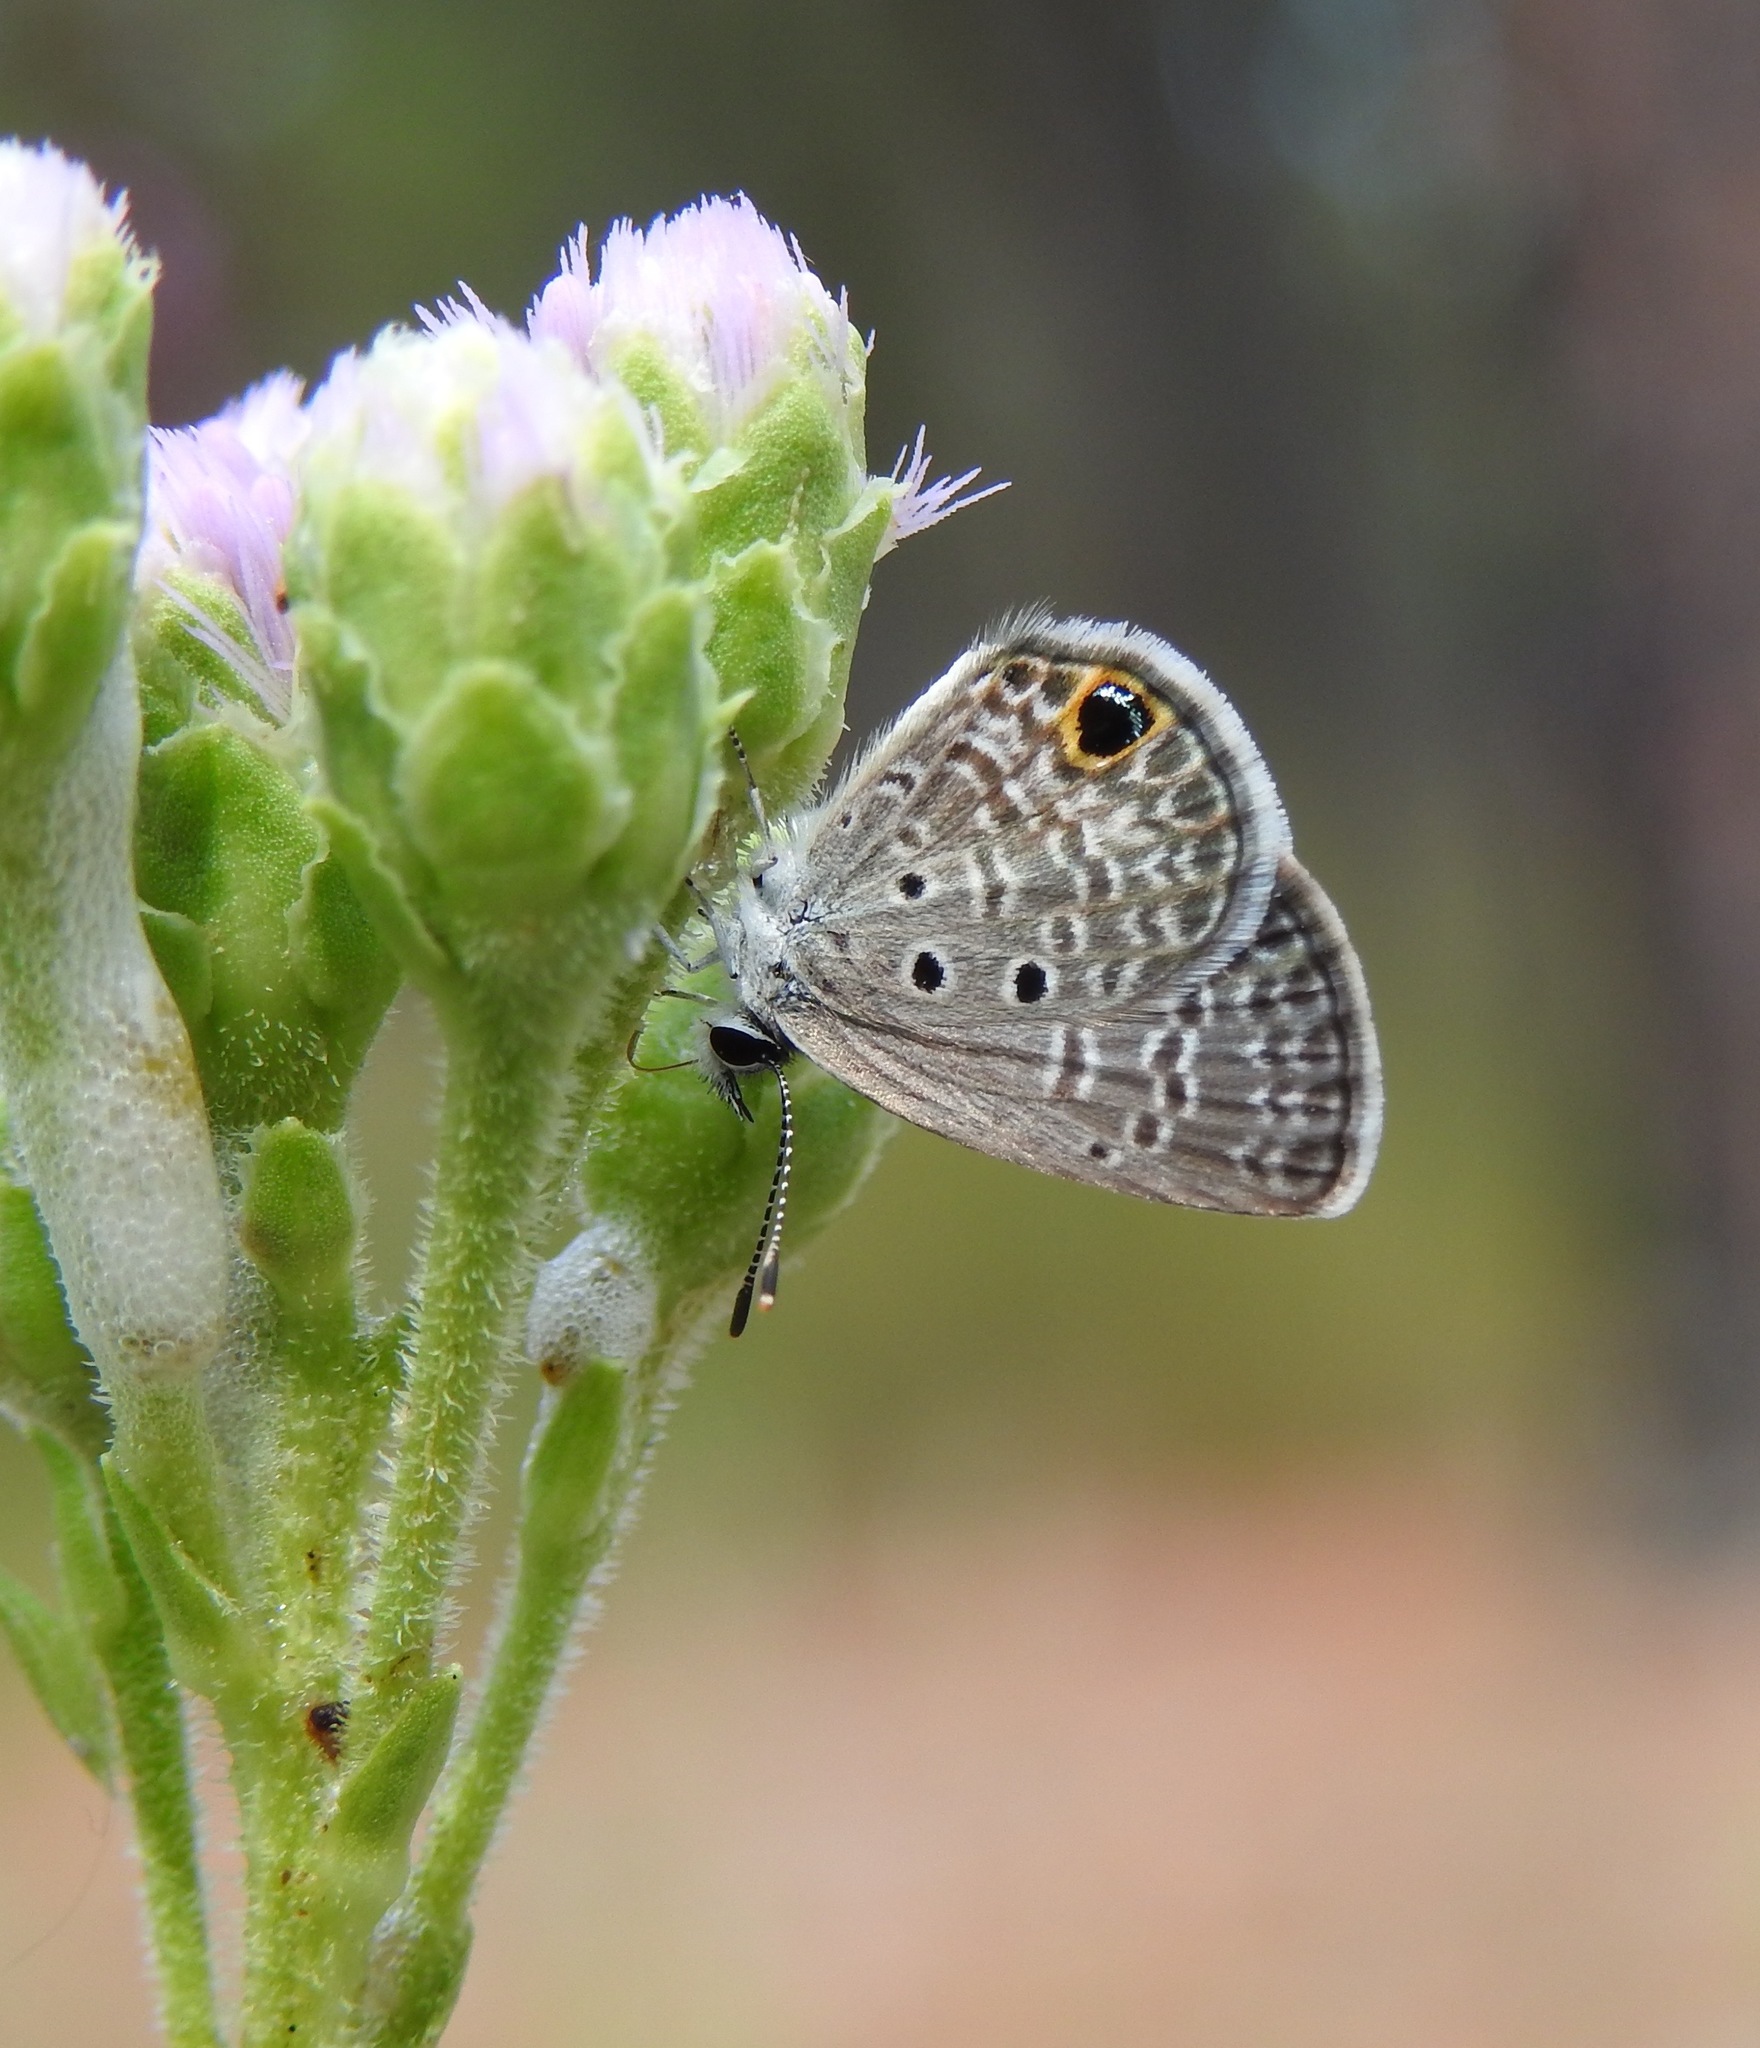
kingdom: Animalia
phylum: Arthropoda
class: Insecta
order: Lepidoptera
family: Lycaenidae
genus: Hemiargus
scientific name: Hemiargus ceraunus
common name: Ceraunus blue
